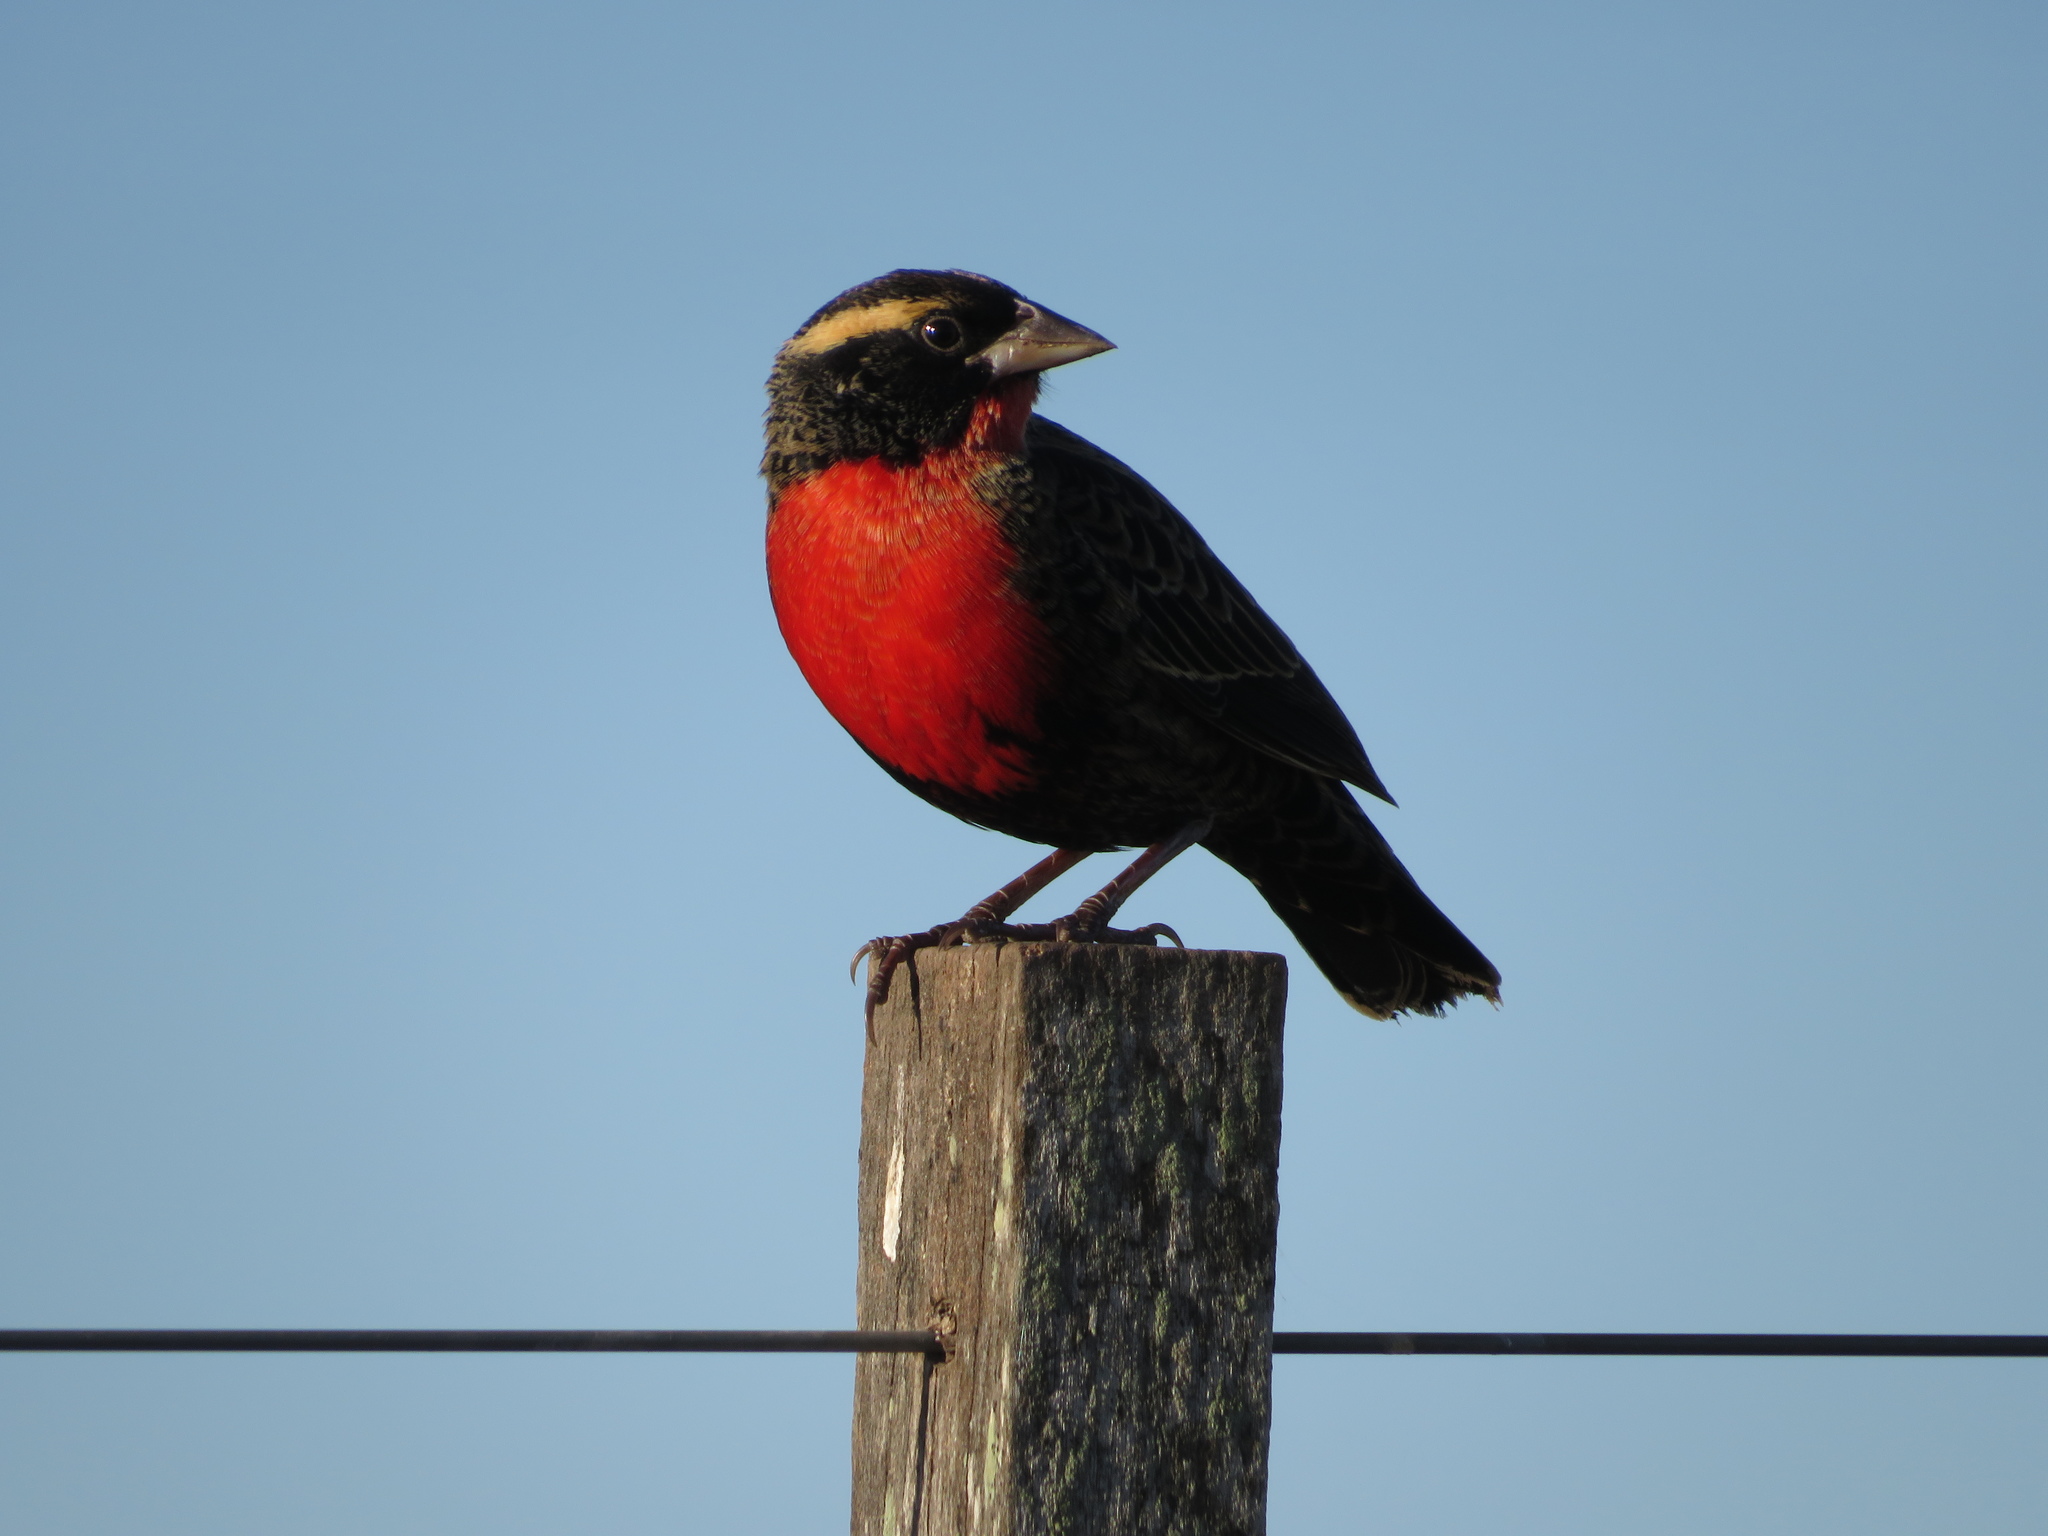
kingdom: Animalia
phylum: Chordata
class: Aves
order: Passeriformes
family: Icteridae
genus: Sturnella
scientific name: Sturnella superciliaris
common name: White-browed blackbird
